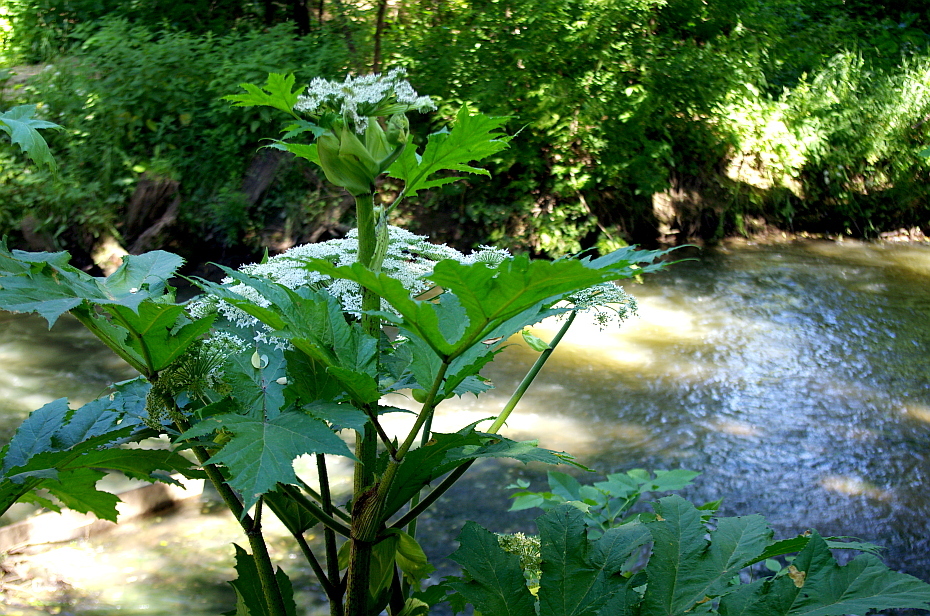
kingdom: Plantae
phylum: Tracheophyta
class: Magnoliopsida
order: Apiales
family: Apiaceae
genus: Heracleum
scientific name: Heracleum sosnowskyi
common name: Sosnowsky's hogweed
